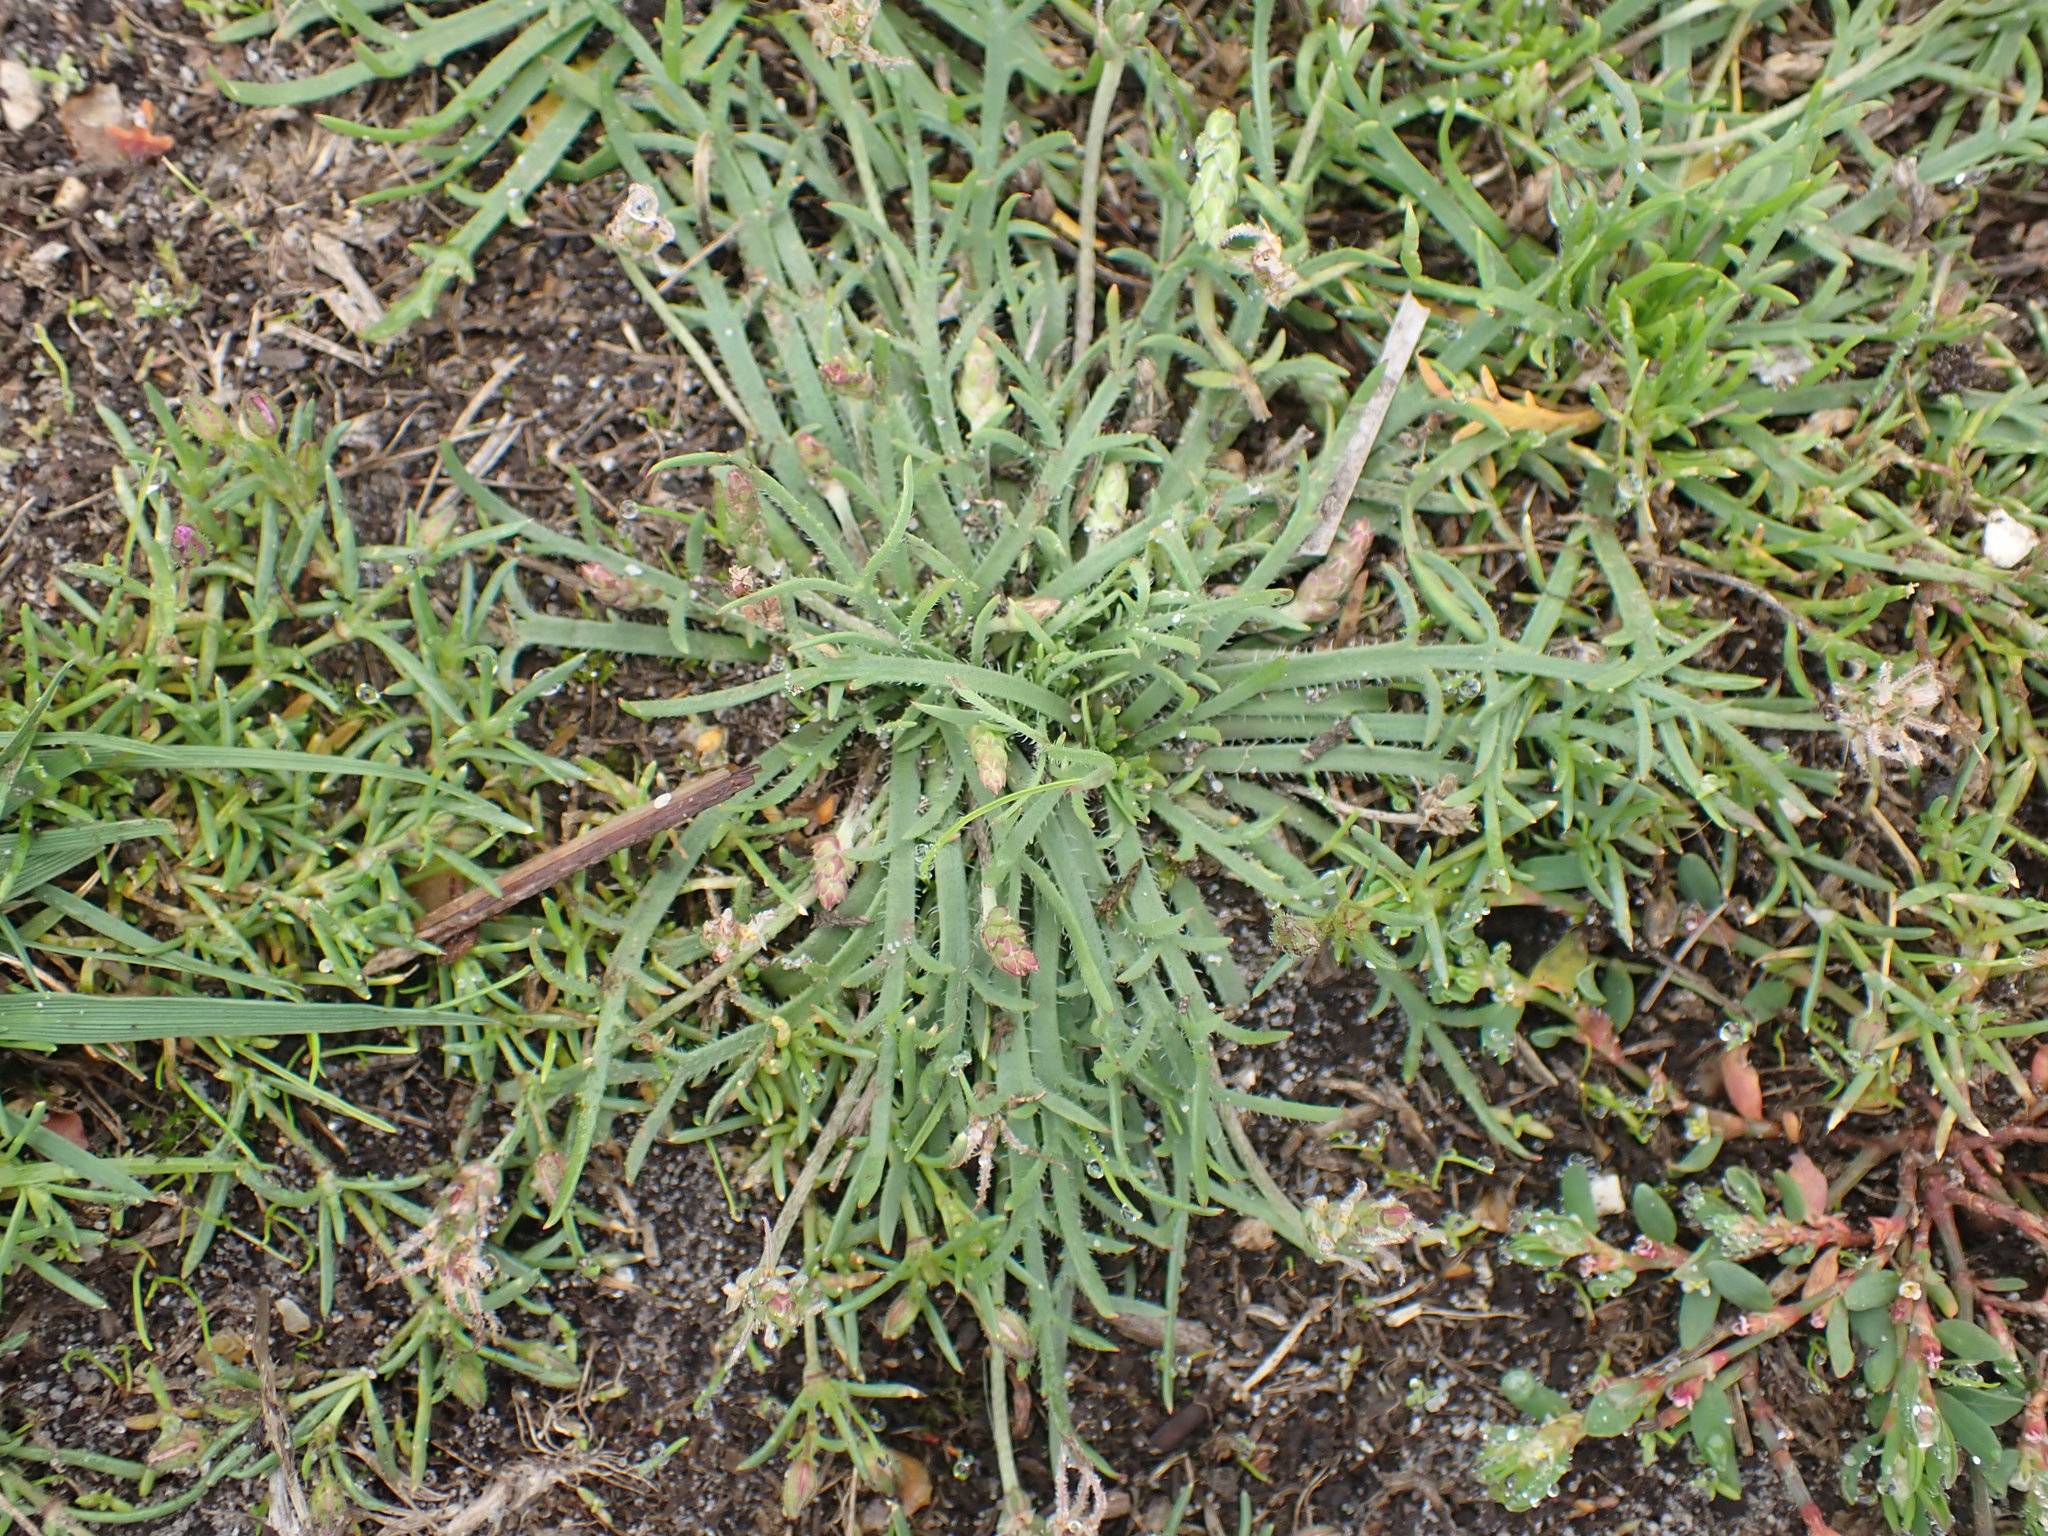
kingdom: Plantae
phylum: Tracheophyta
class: Magnoliopsida
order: Lamiales
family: Plantaginaceae
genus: Plantago
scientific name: Plantago coronopus
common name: Buck's-horn plantain
